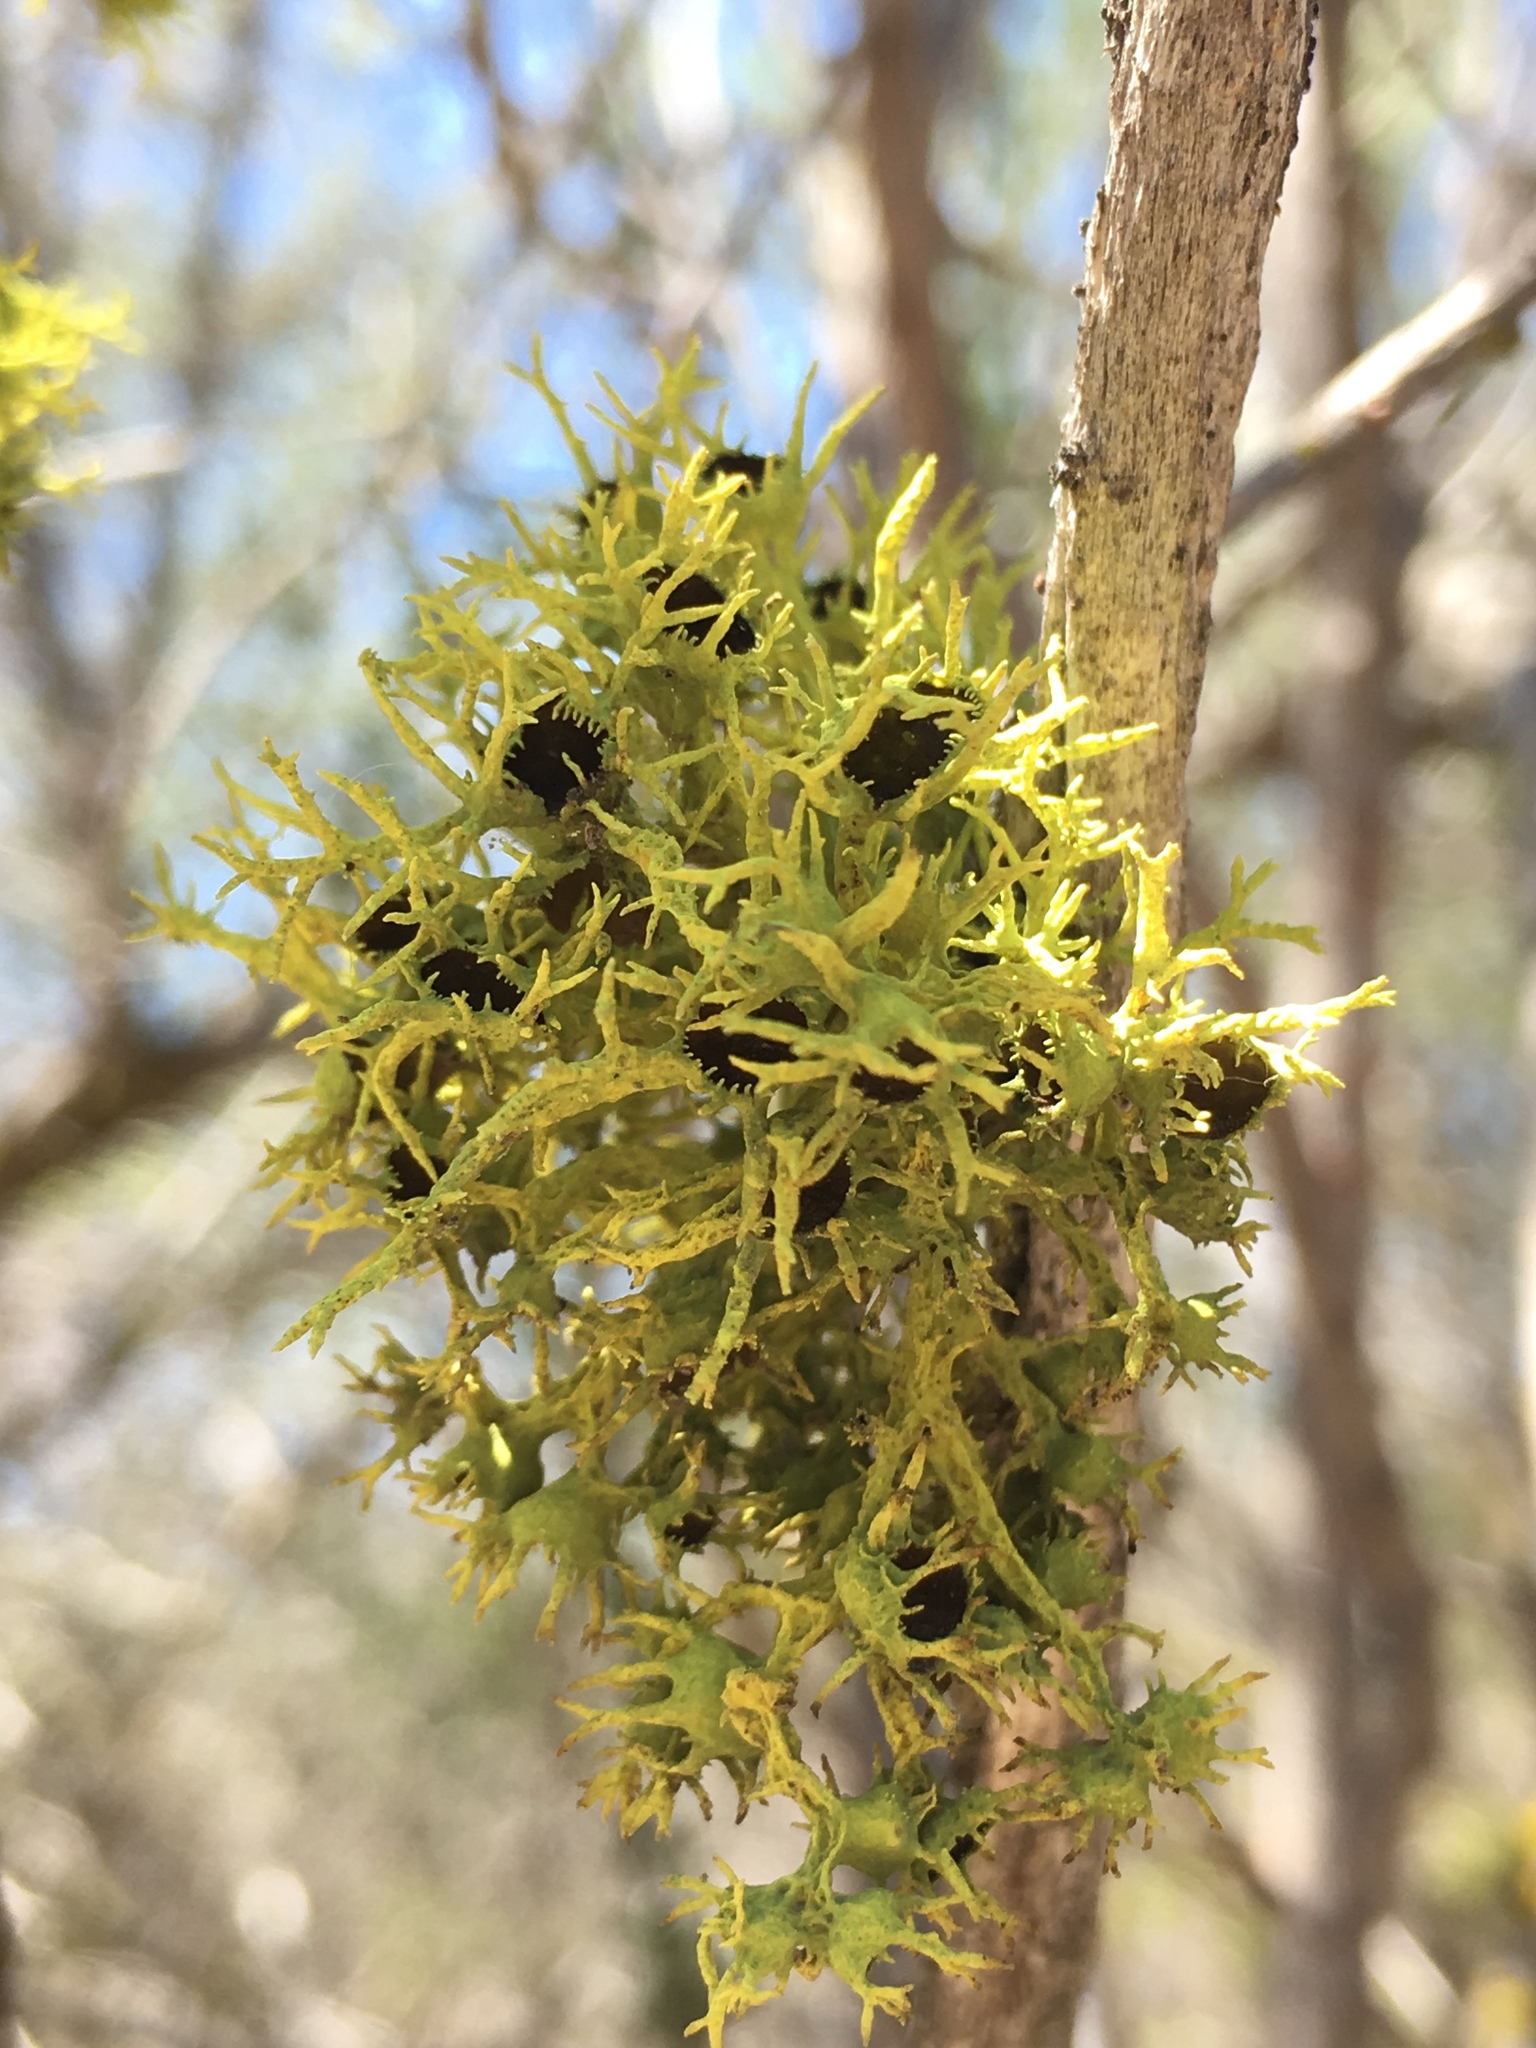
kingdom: Fungi
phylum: Ascomycota
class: Lecanoromycetes
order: Lecanorales
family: Parmeliaceae
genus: Letharia
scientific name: Letharia columbiana
